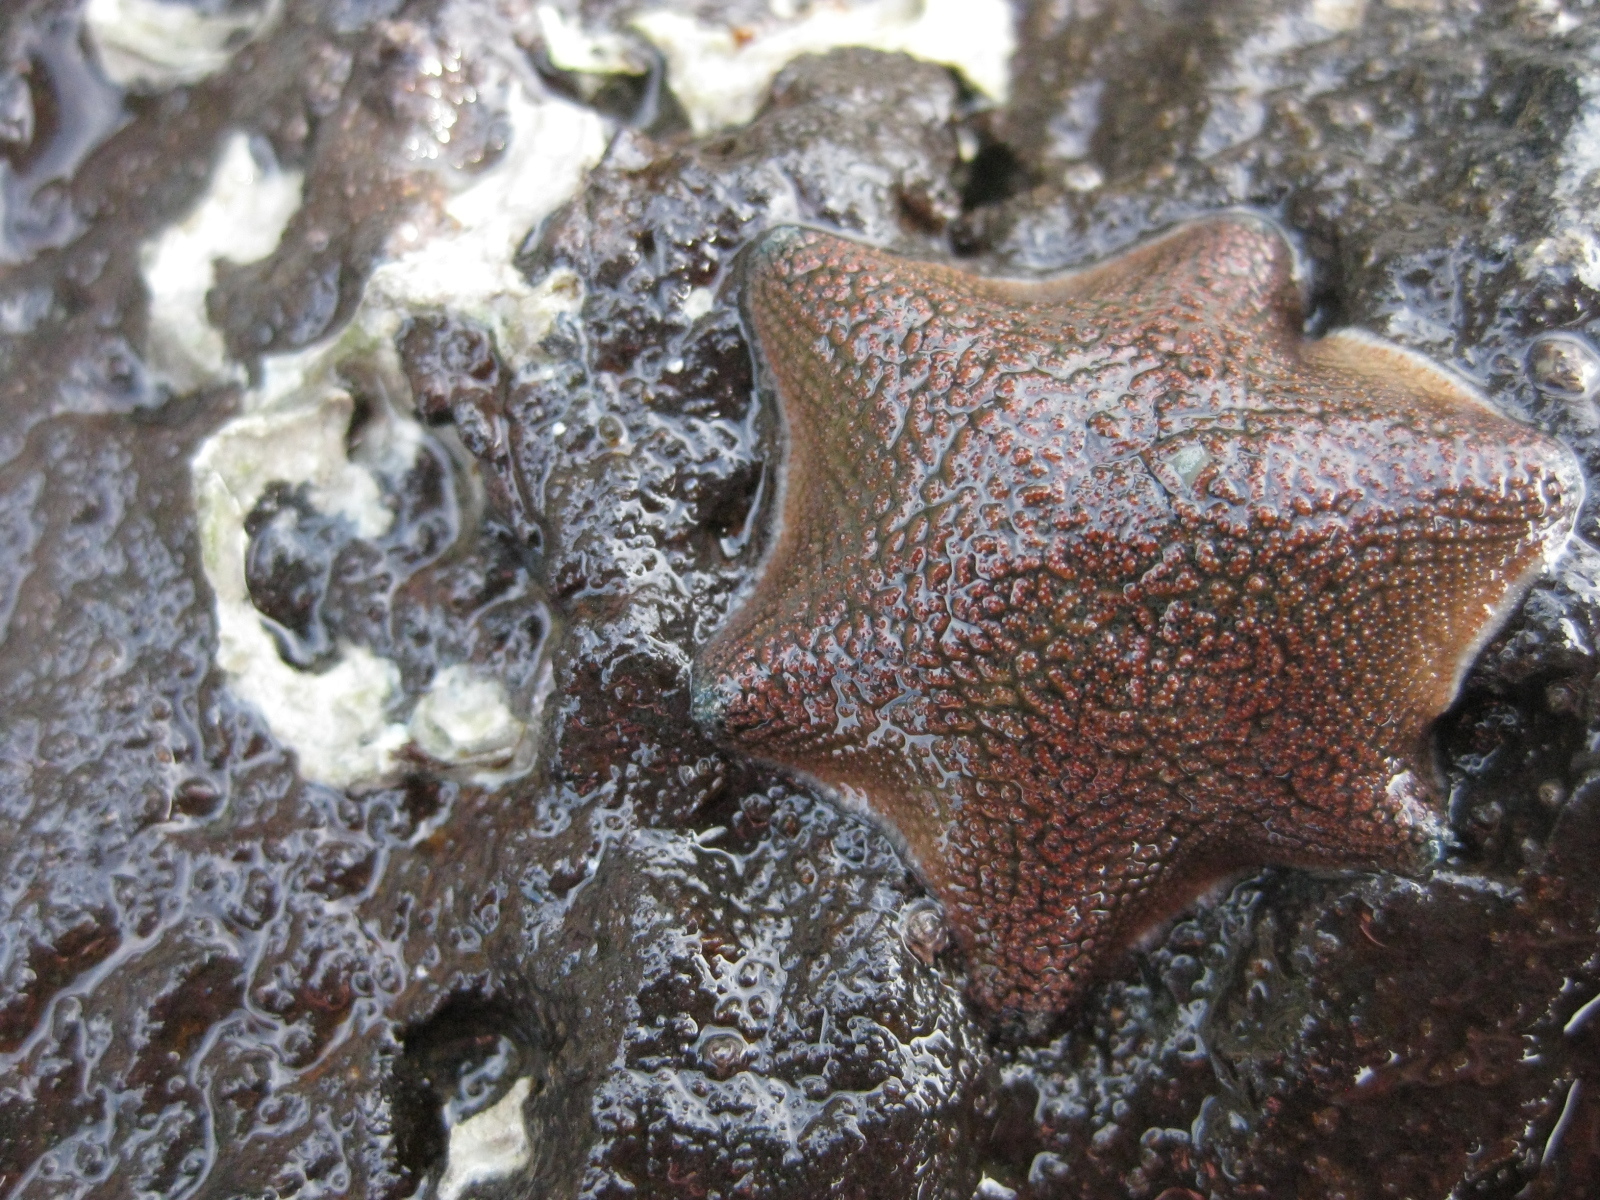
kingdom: Animalia
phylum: Echinodermata
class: Asteroidea
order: Valvatida
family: Asterinidae
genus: Patiriella
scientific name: Patiriella regularis
